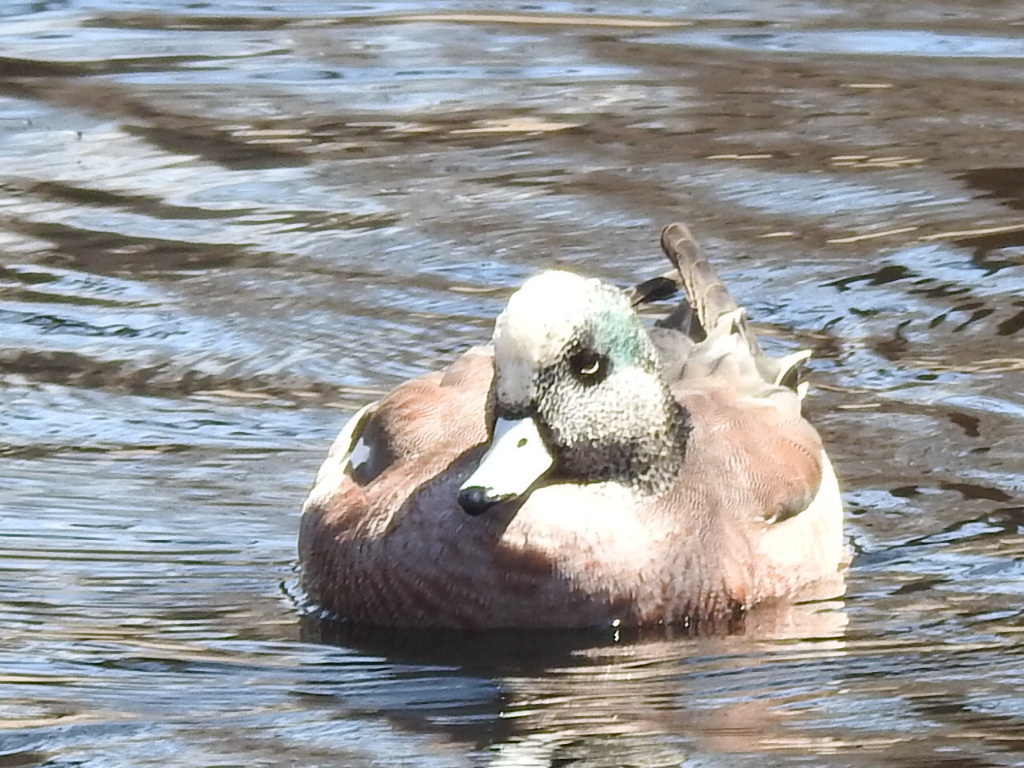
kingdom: Animalia
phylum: Chordata
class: Aves
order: Anseriformes
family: Anatidae
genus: Mareca
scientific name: Mareca americana
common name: American wigeon
